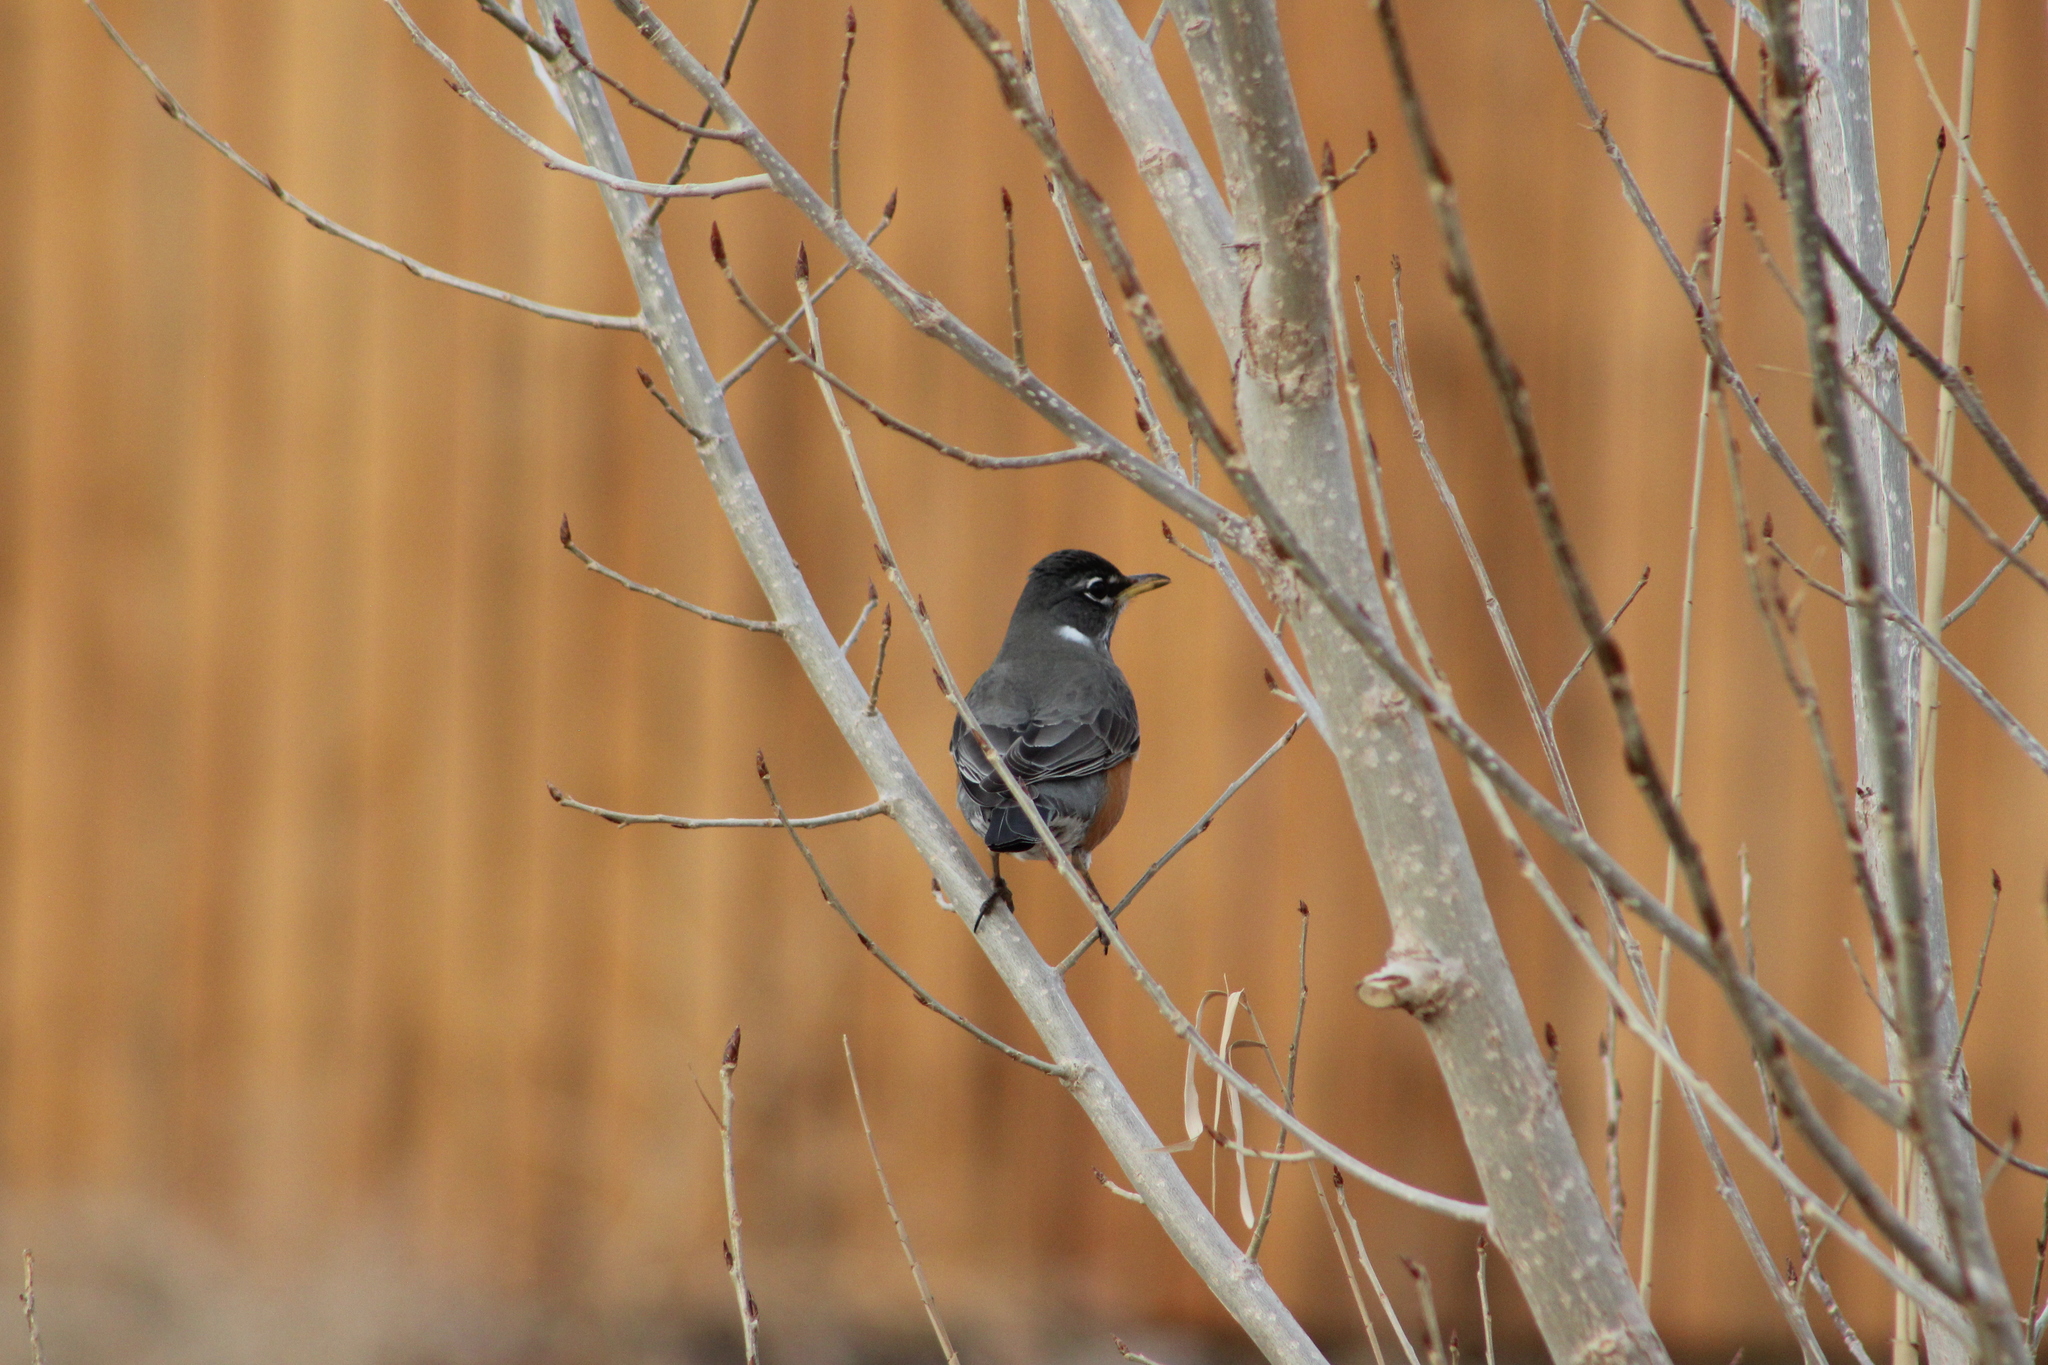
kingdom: Animalia
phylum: Chordata
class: Aves
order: Passeriformes
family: Turdidae
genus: Turdus
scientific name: Turdus migratorius
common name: American robin
